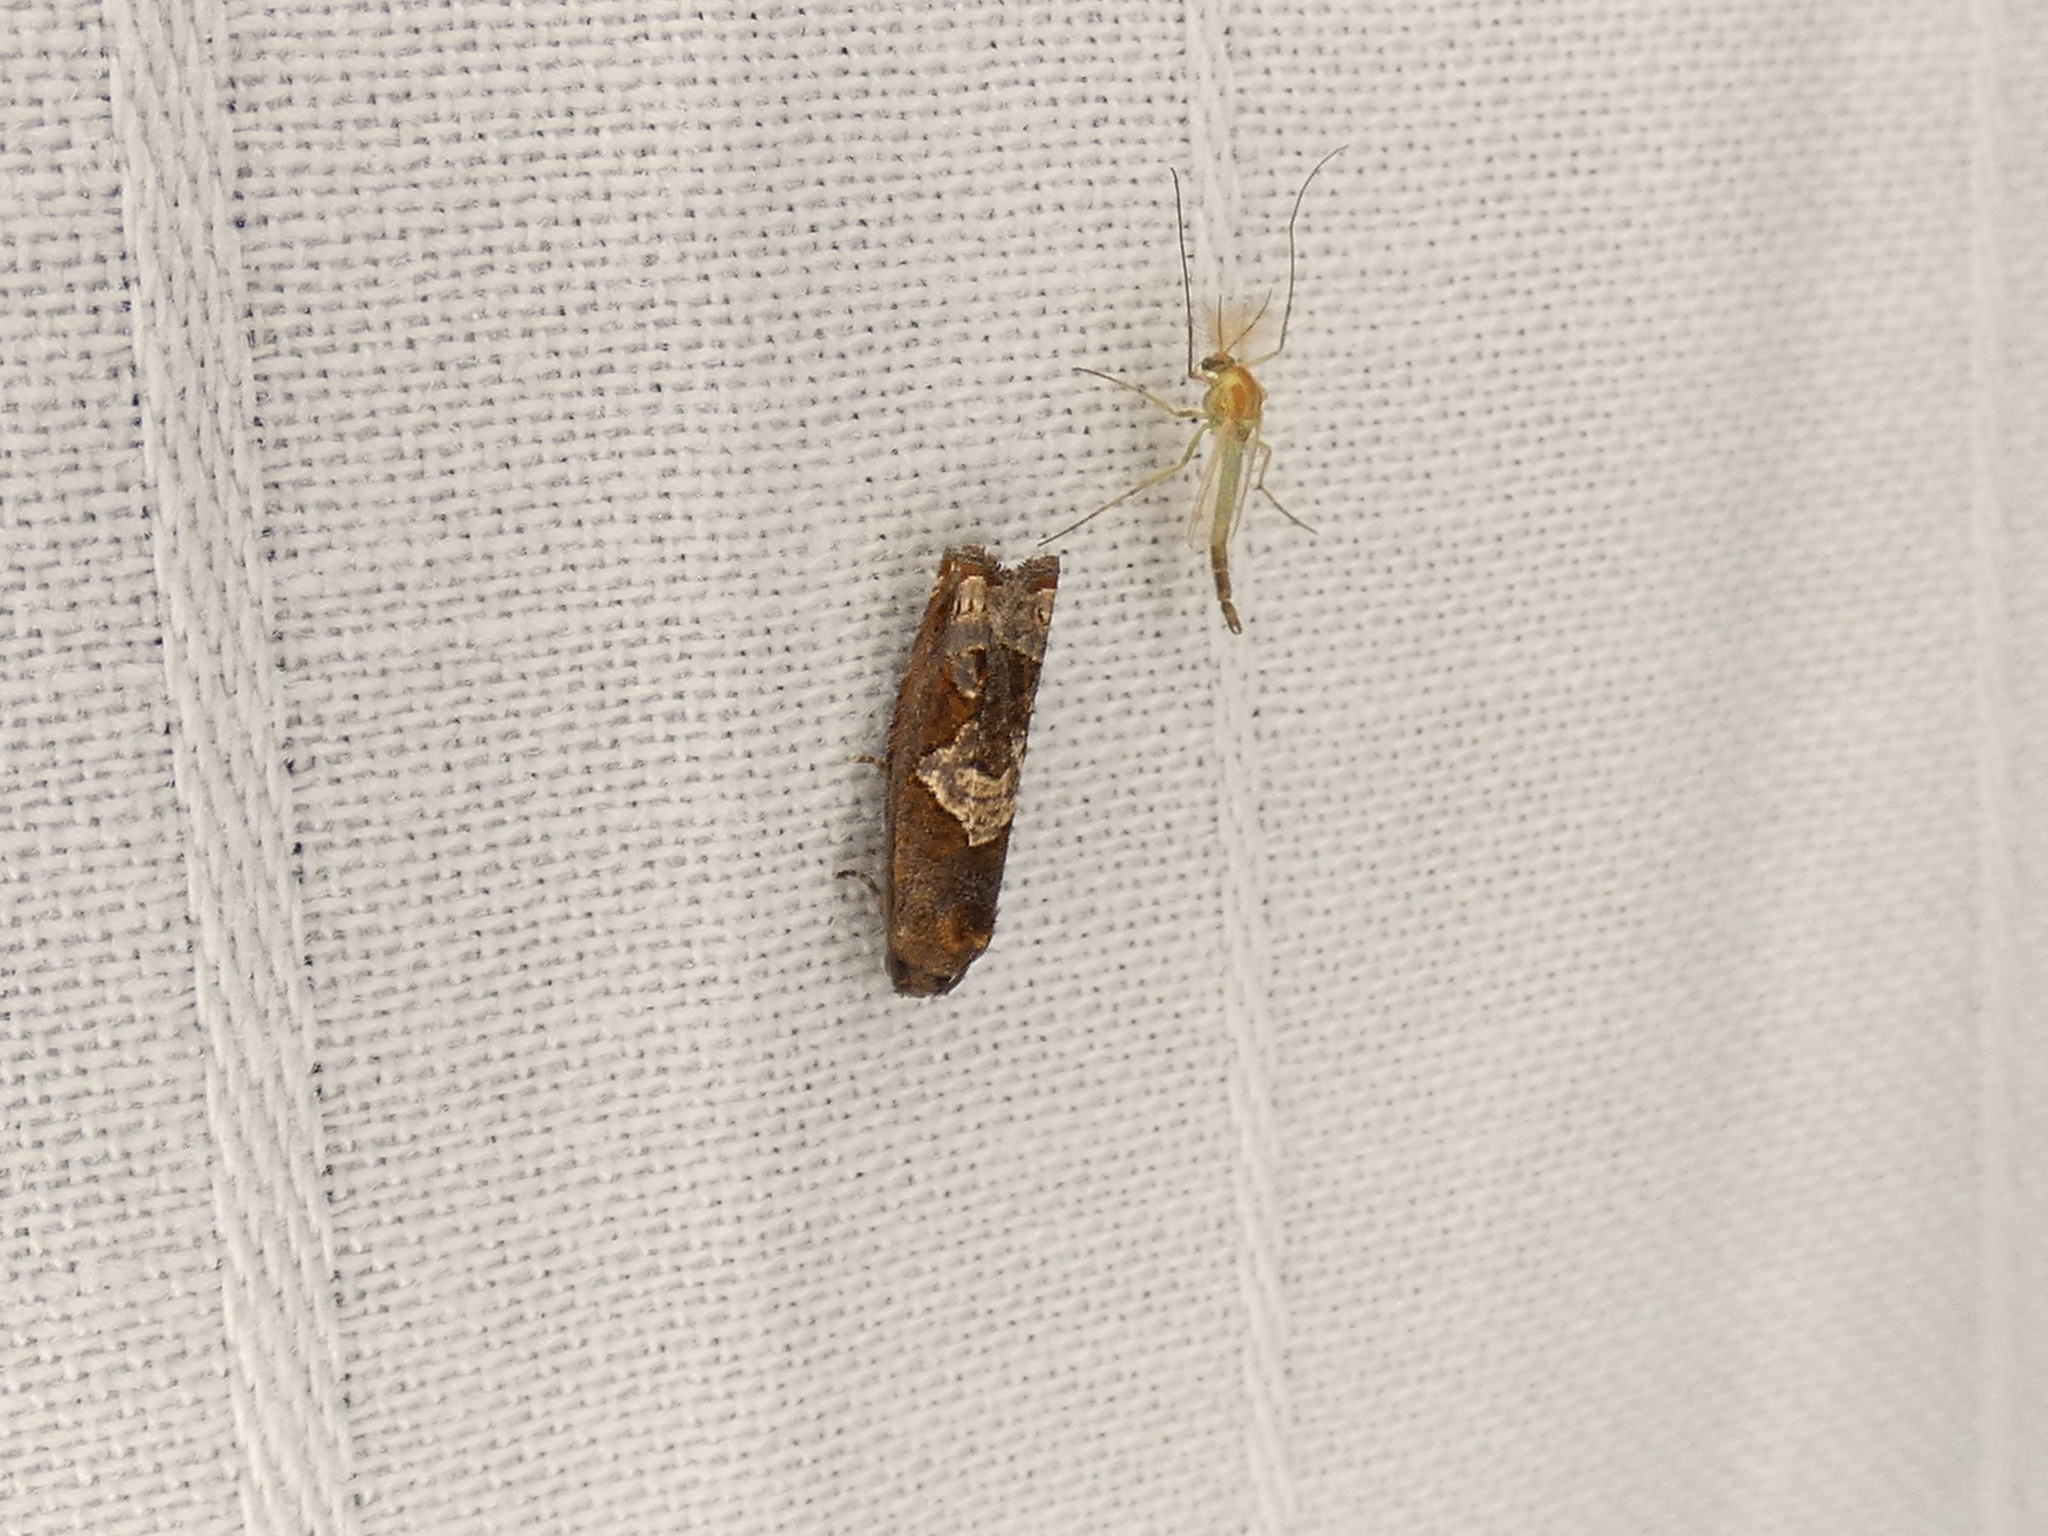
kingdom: Animalia
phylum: Arthropoda
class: Insecta
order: Lepidoptera
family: Tortricidae
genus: Epiblema
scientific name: Epiblema otiosana
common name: Bidens borer moth
